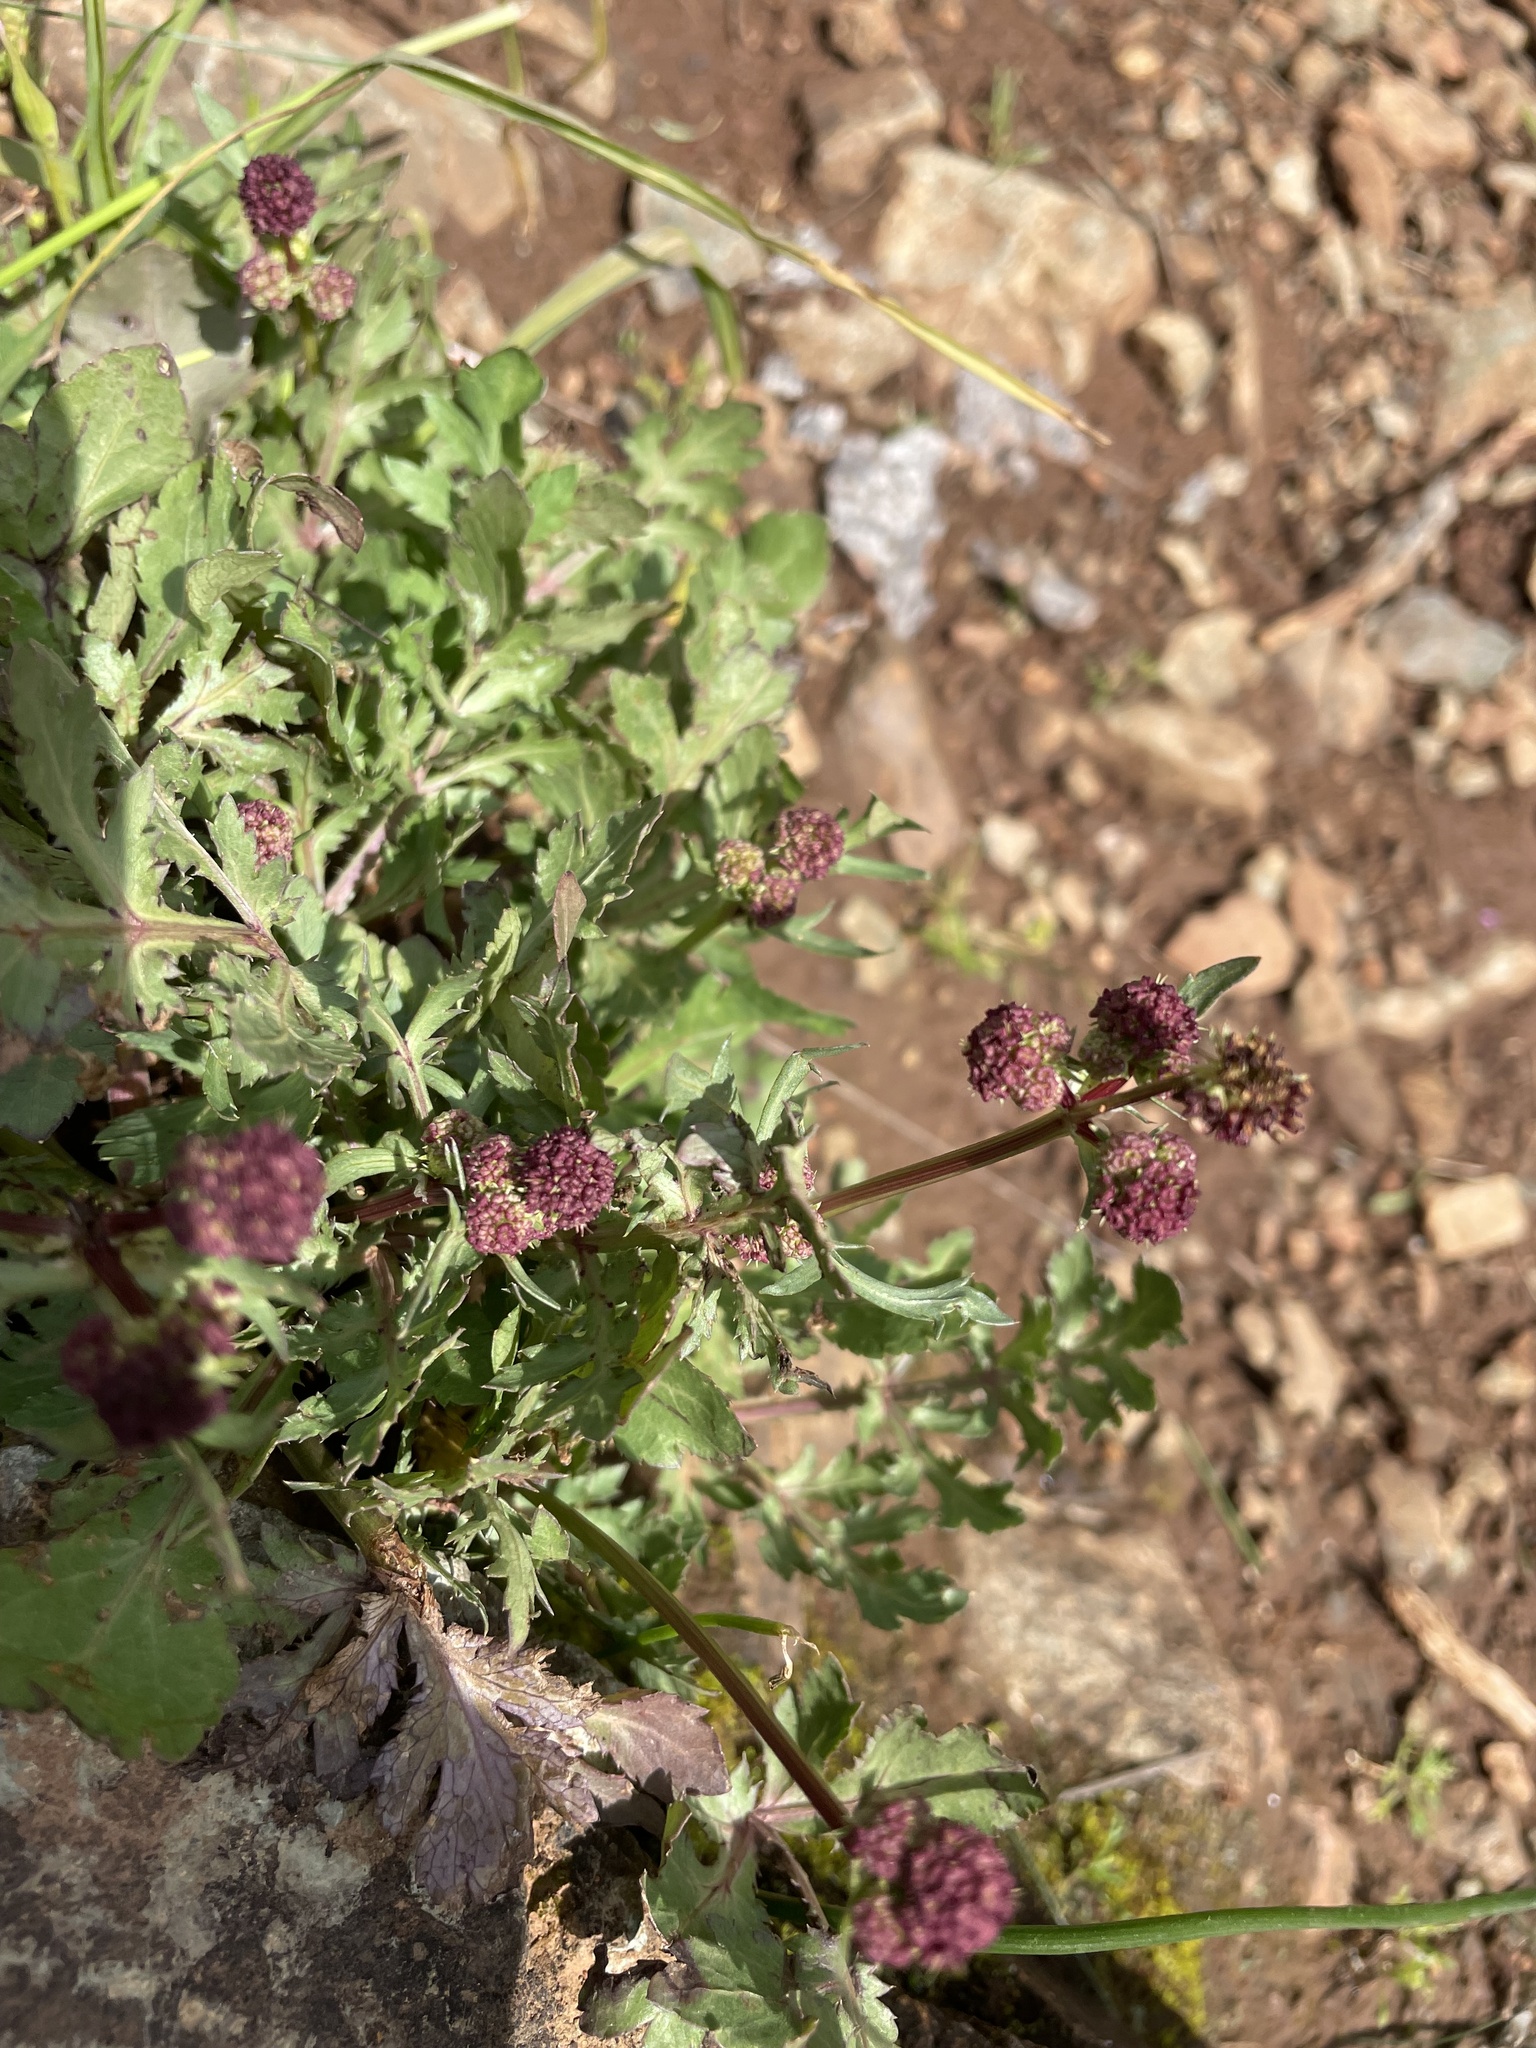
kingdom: Plantae
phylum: Tracheophyta
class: Magnoliopsida
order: Apiales
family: Apiaceae
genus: Sanicula
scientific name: Sanicula bipinnatifida
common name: Shoe-buttons
